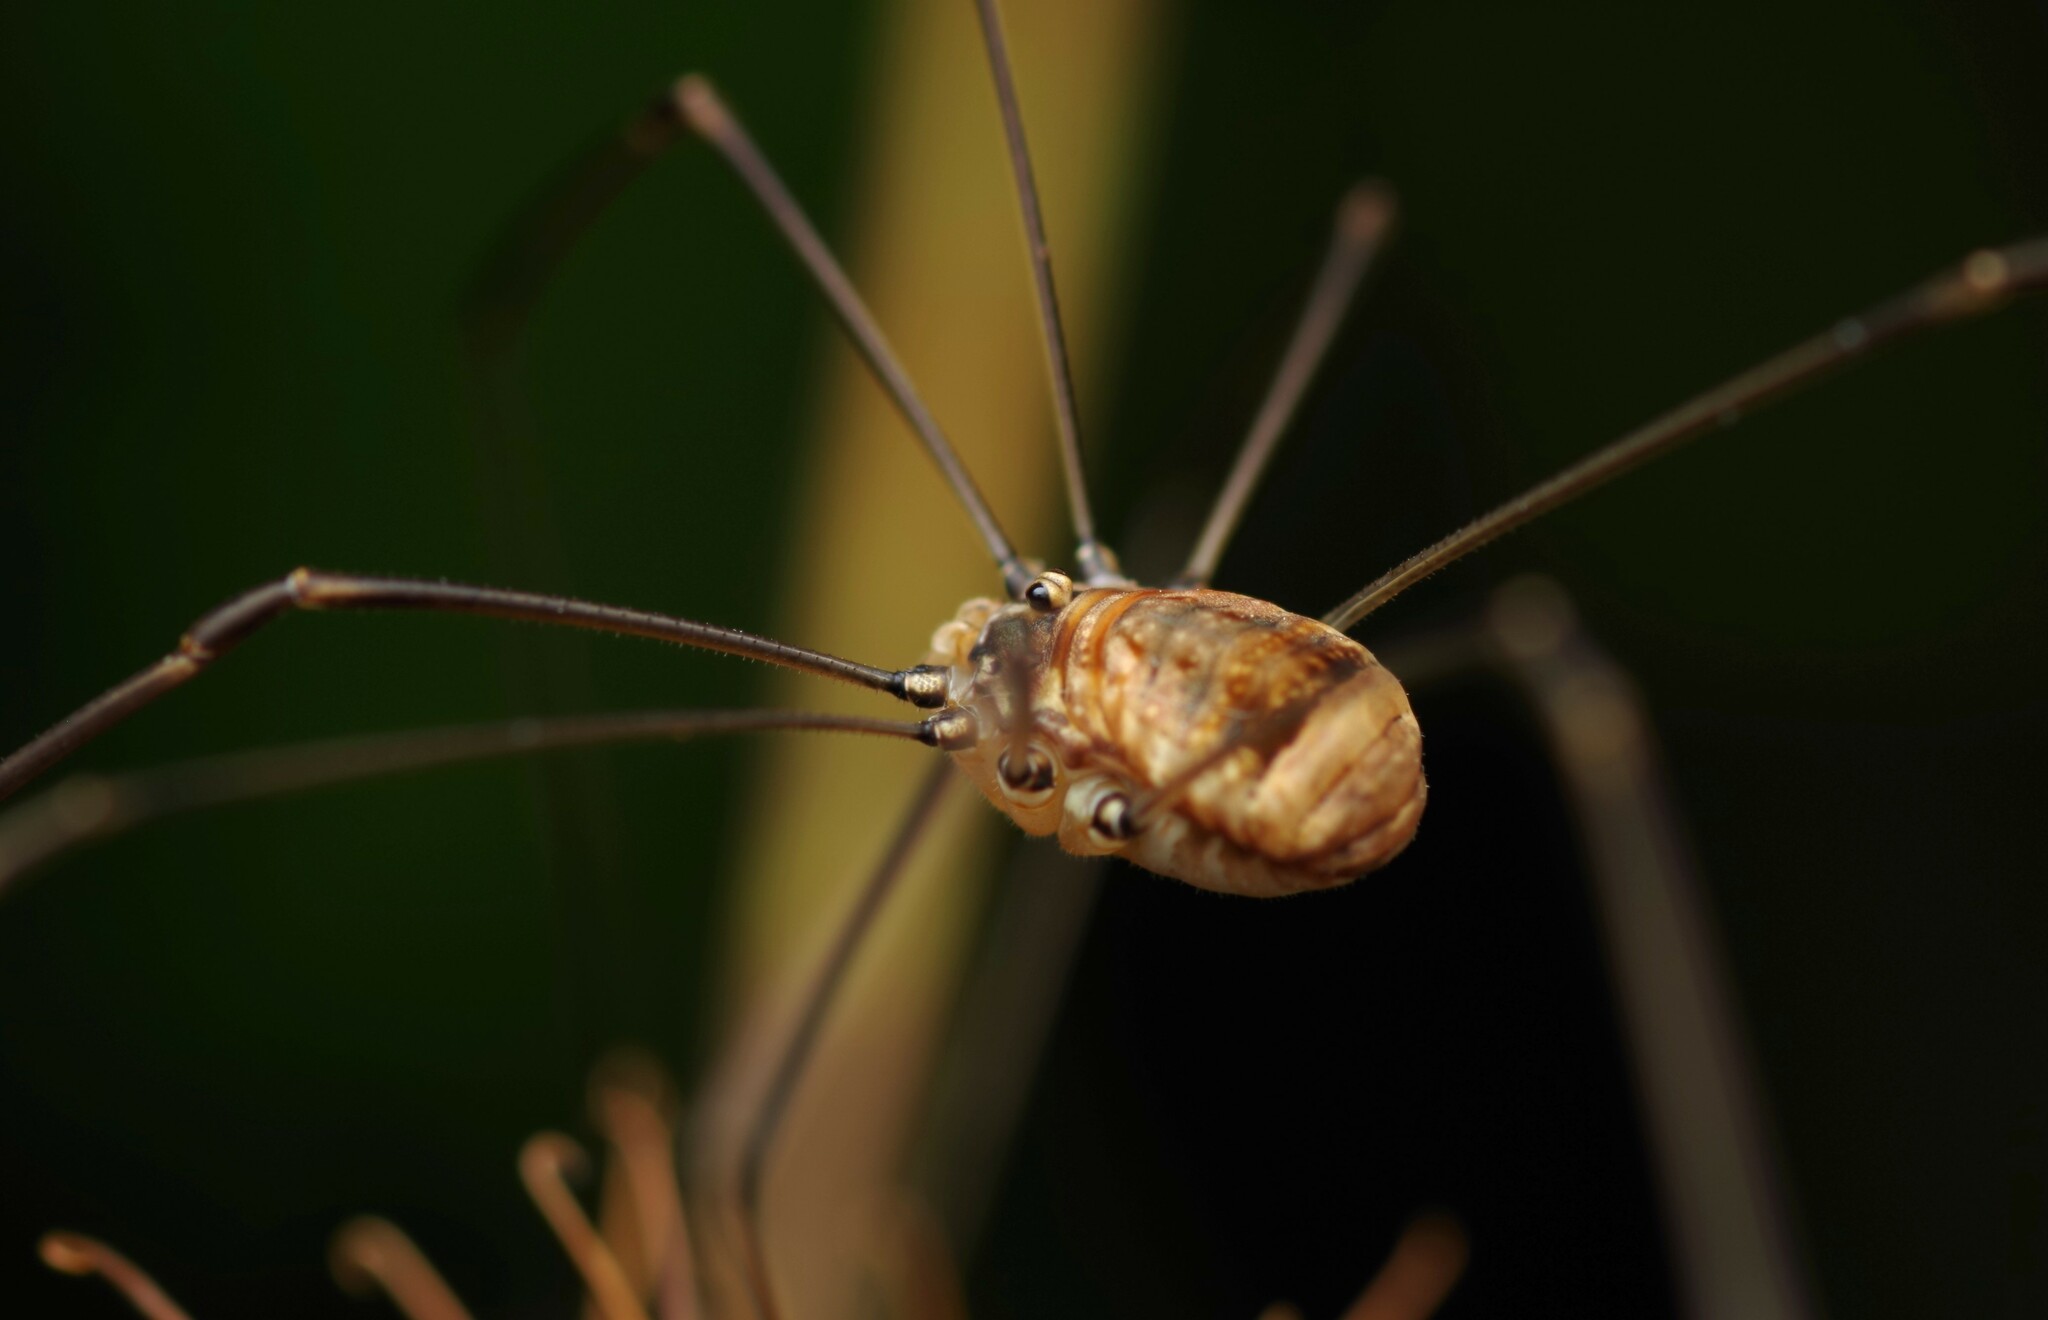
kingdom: Animalia
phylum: Arthropoda
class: Arachnida
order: Opiliones
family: Sclerosomatidae
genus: Leiobunum
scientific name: Leiobunum blackwalli
